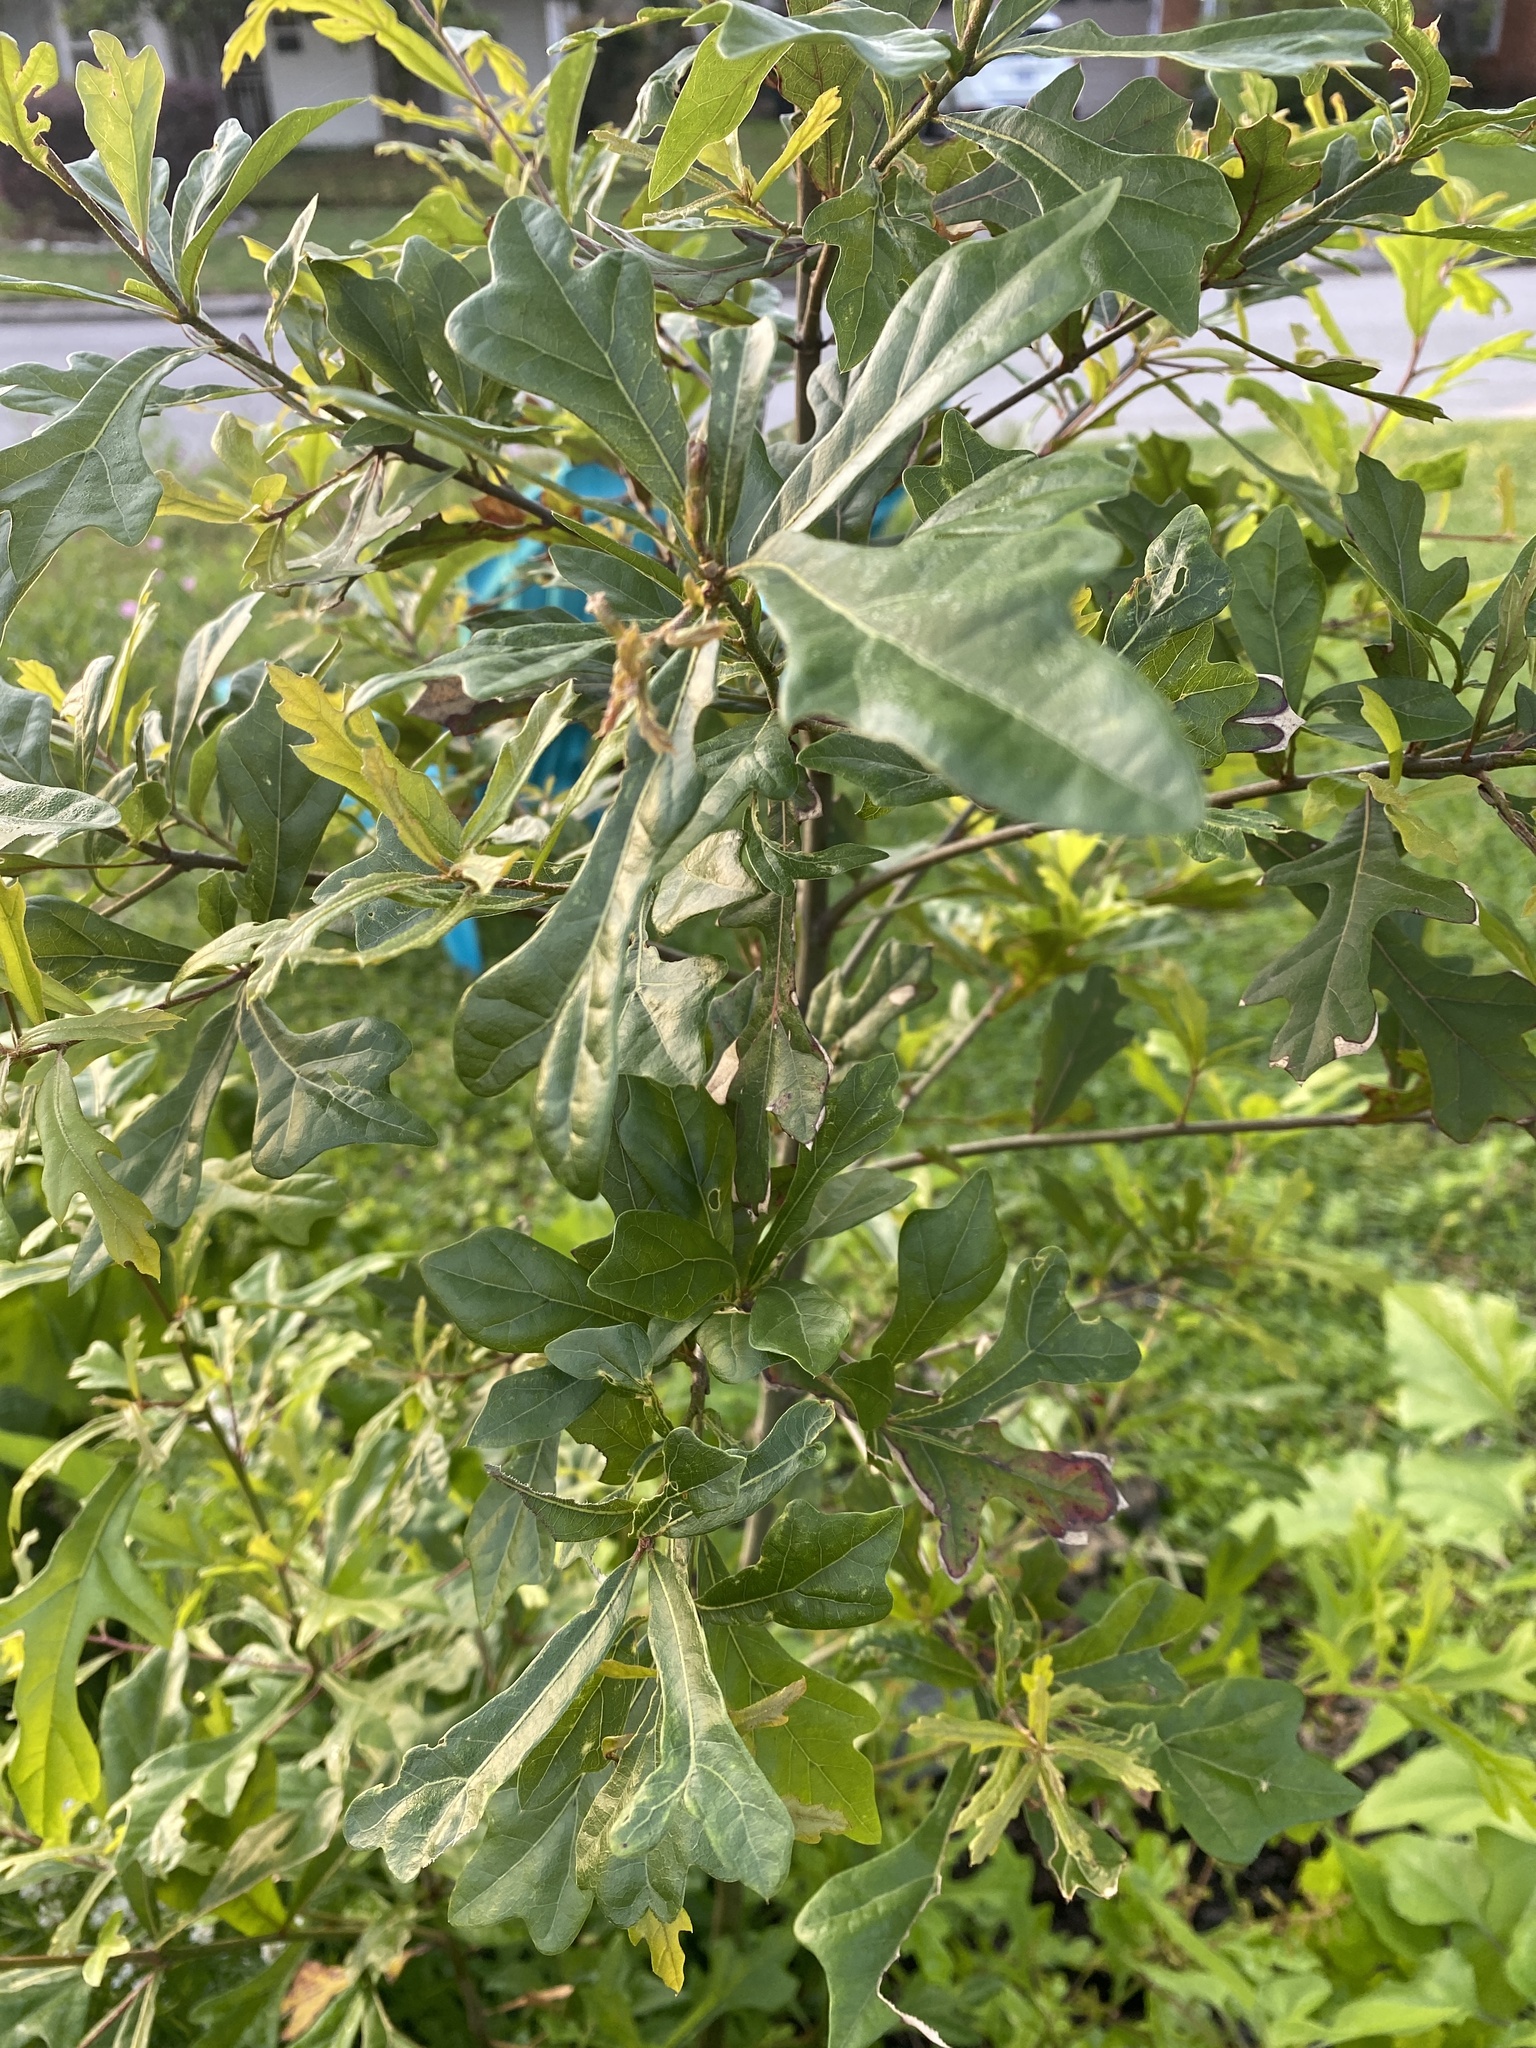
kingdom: Plantae
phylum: Tracheophyta
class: Magnoliopsida
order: Fagales
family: Fagaceae
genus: Quercus
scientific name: Quercus nigra
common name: Water oak
